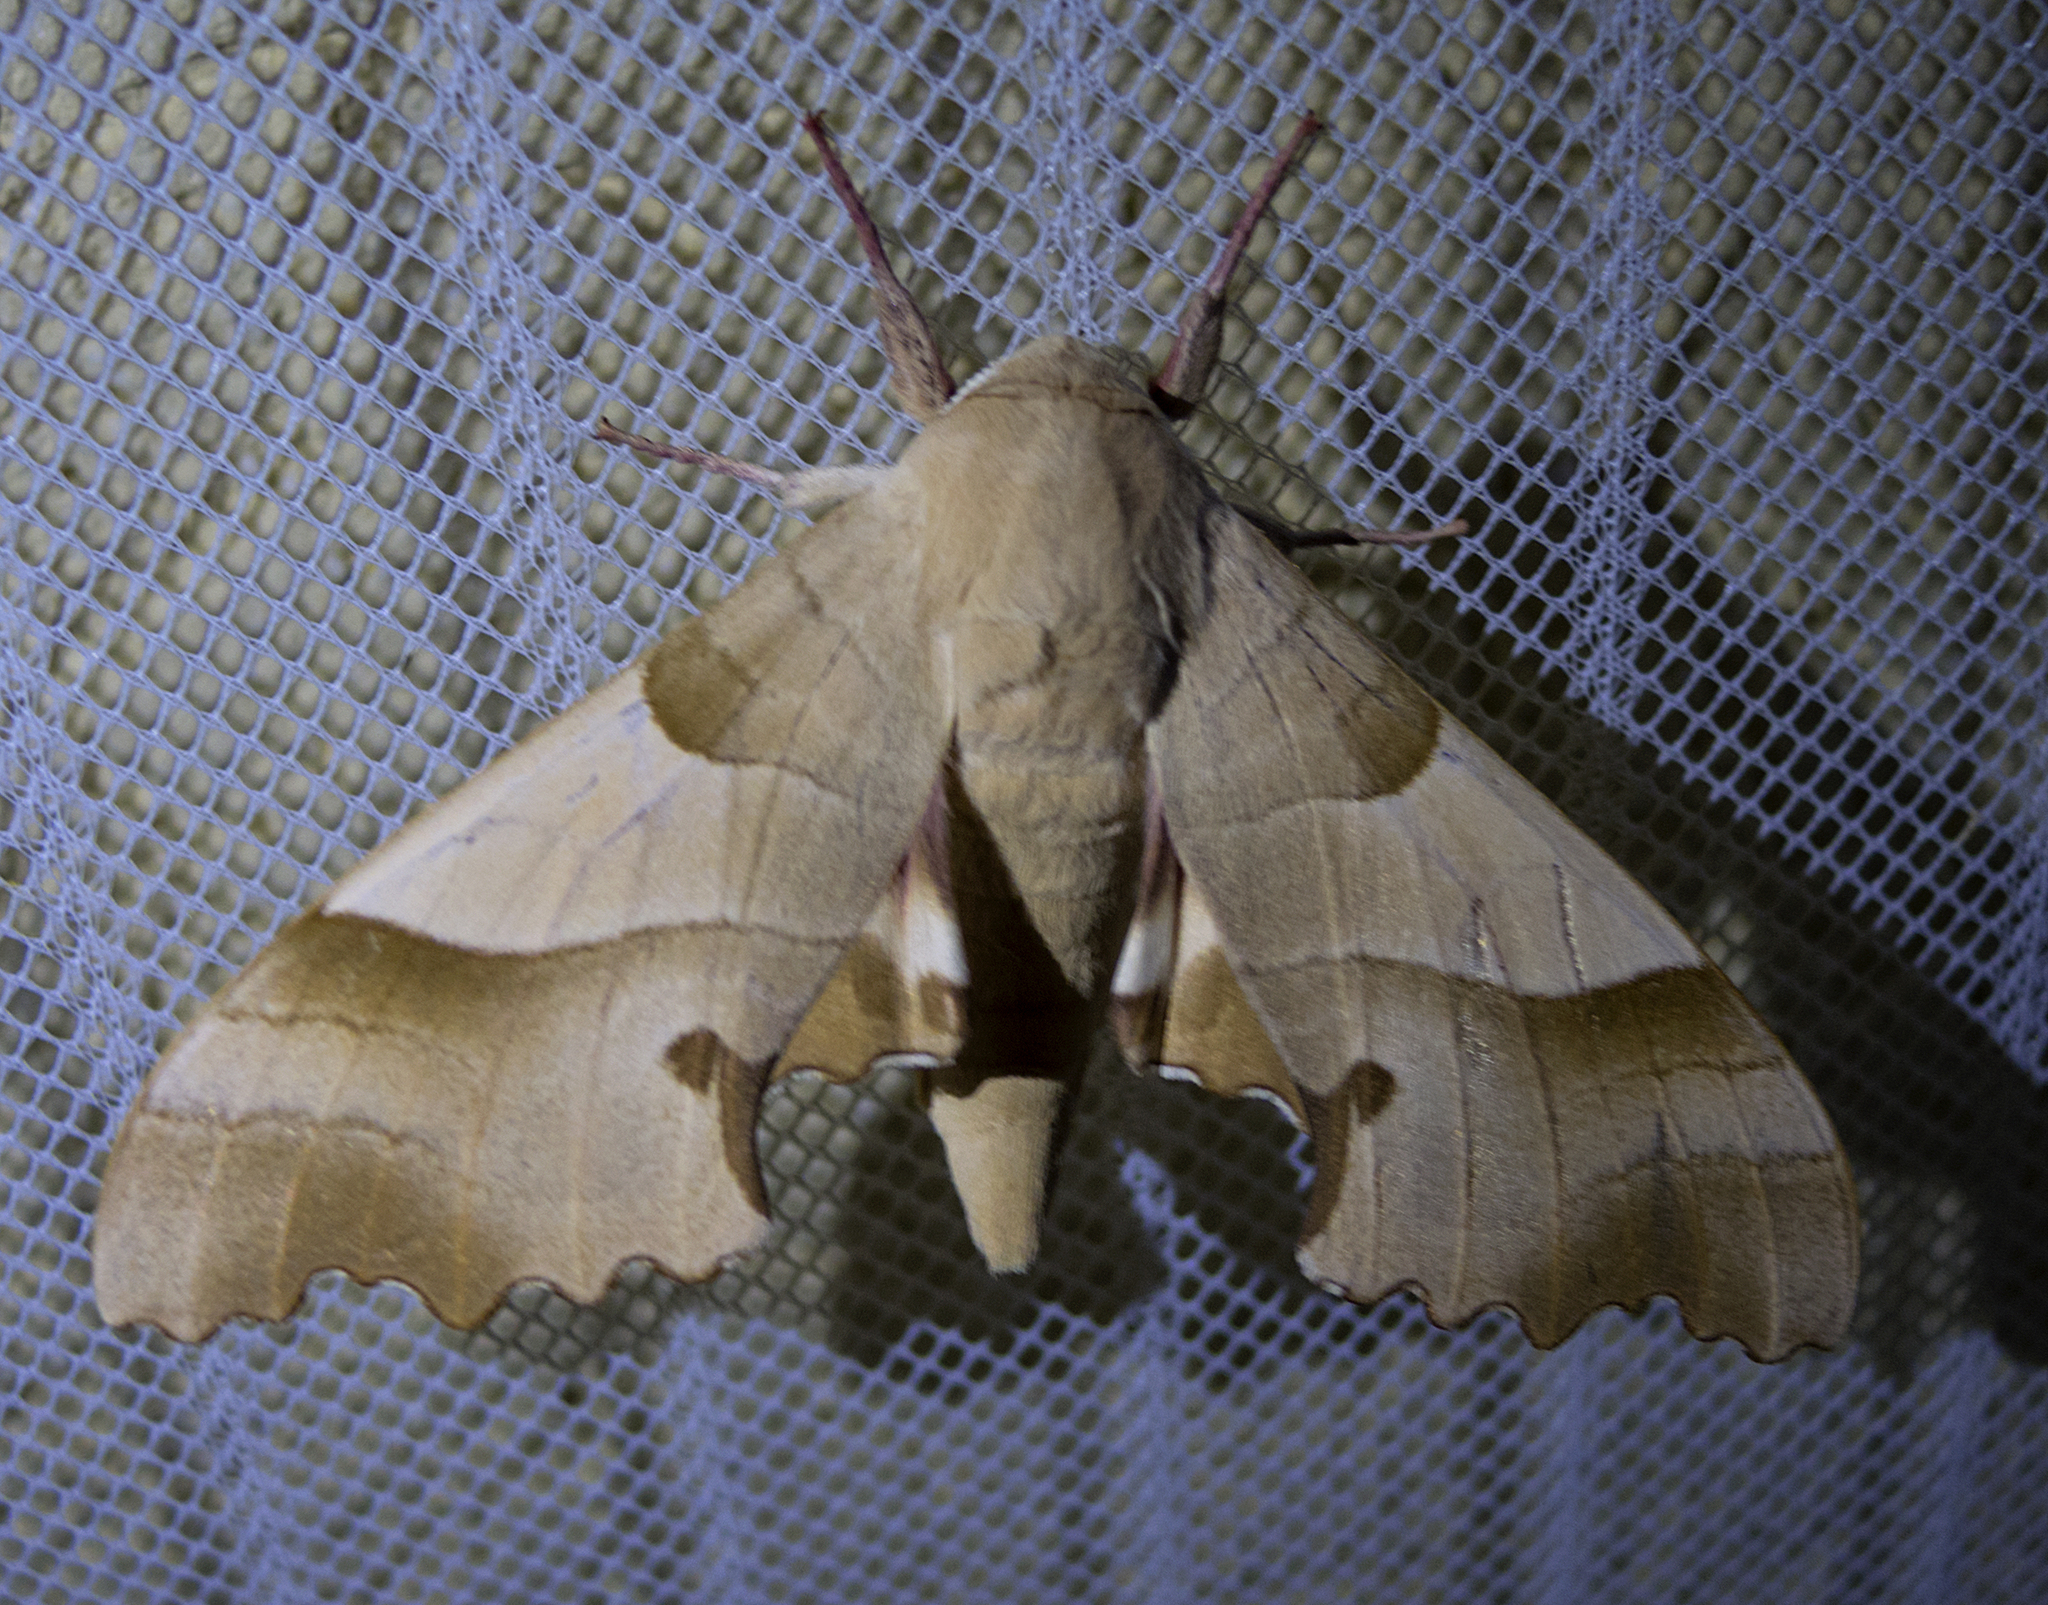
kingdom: Animalia
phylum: Arthropoda
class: Insecta
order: Lepidoptera
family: Sphingidae
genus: Marumba
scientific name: Marumba quercus
